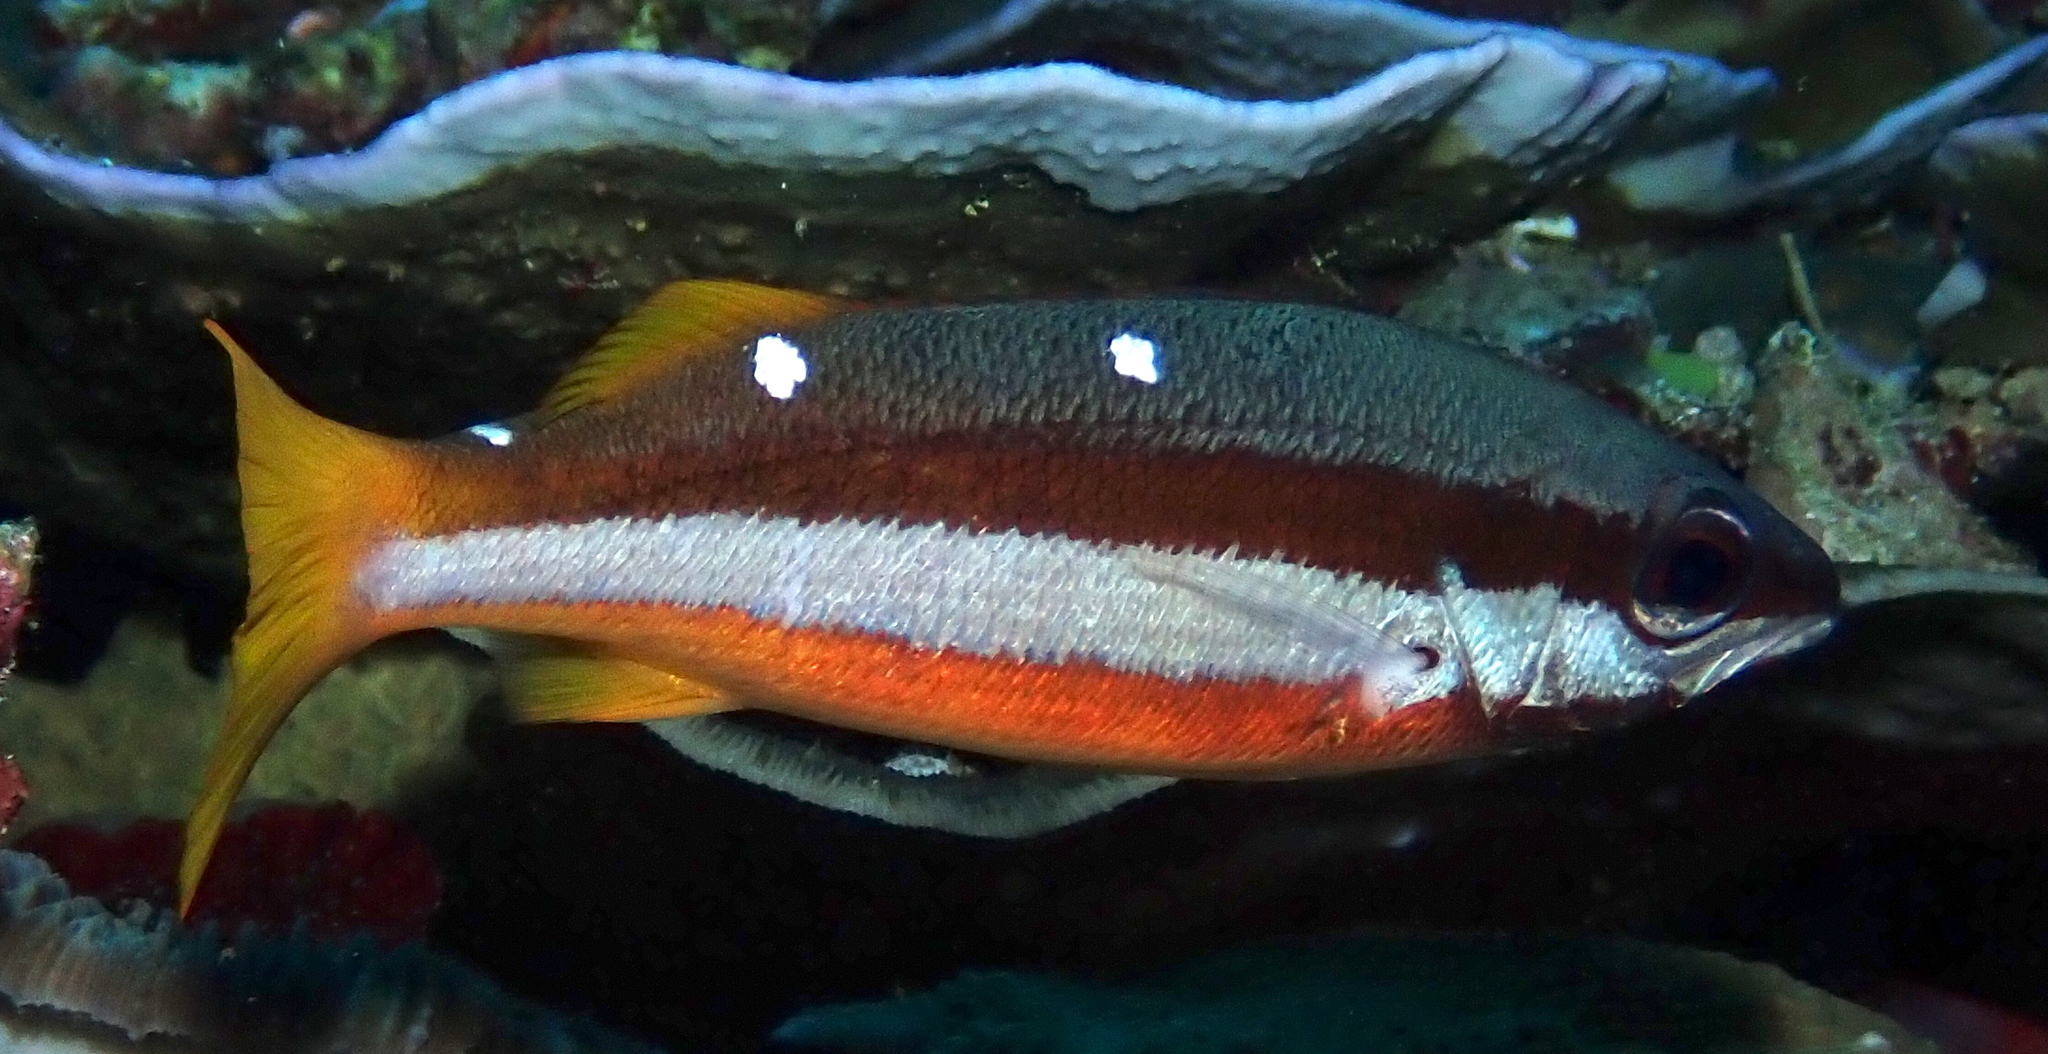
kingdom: Animalia
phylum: Chordata
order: Perciformes
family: Lutjanidae
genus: Lutjanus
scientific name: Lutjanus biguttatus
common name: Two-spot snapper
